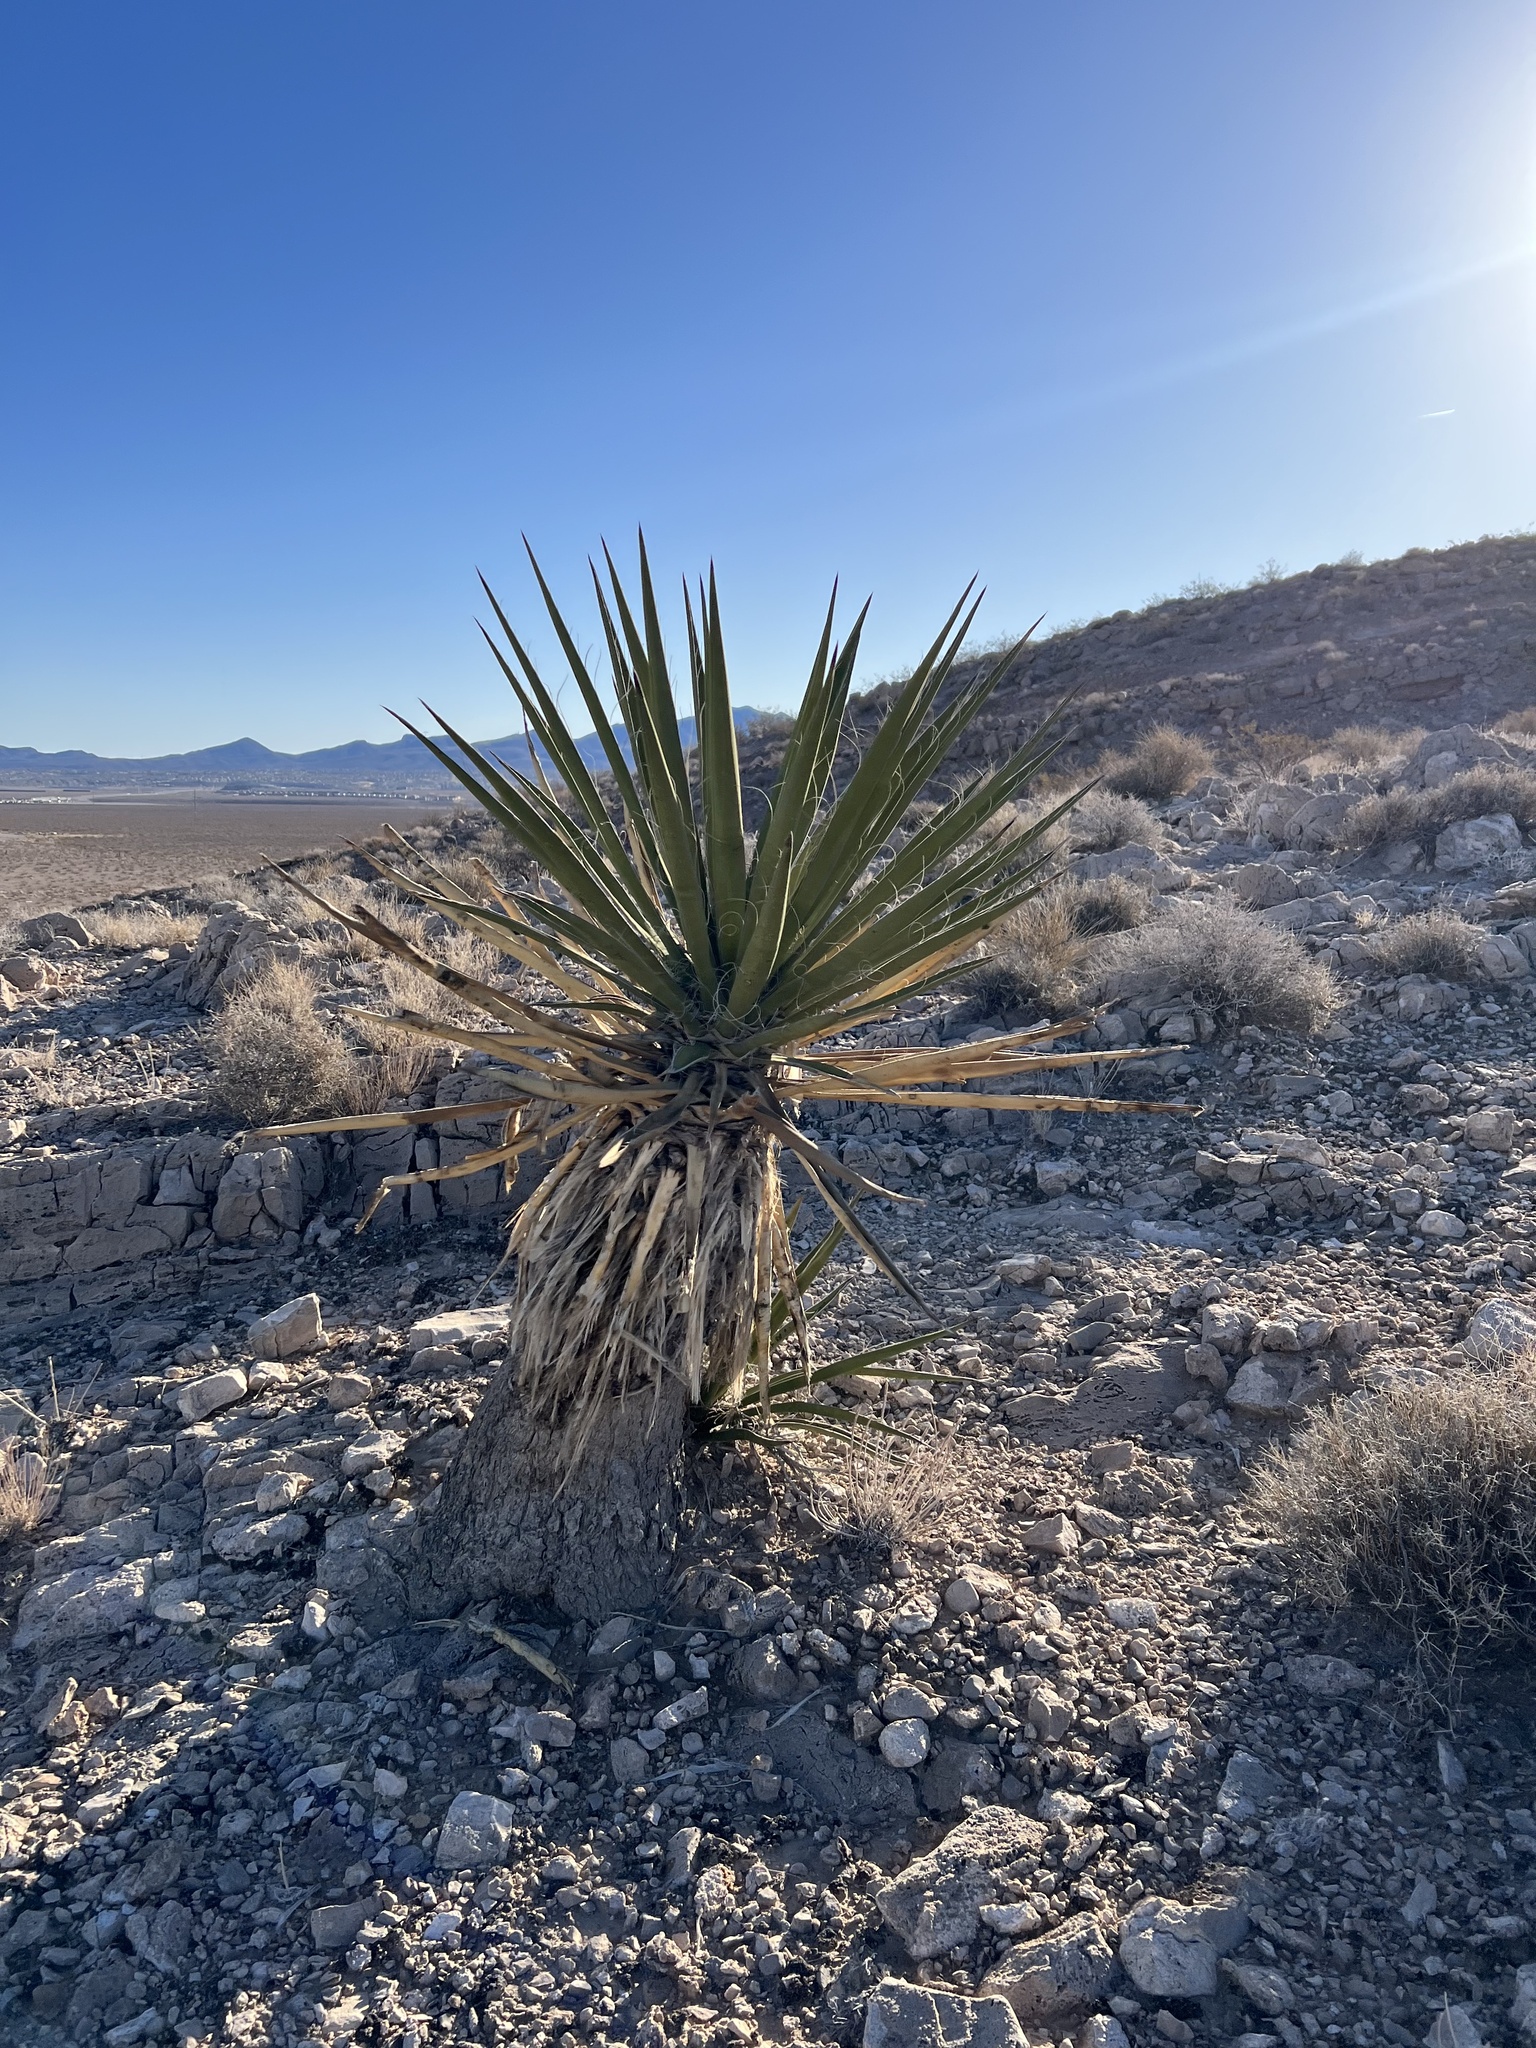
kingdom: Plantae
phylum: Tracheophyta
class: Liliopsida
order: Asparagales
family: Asparagaceae
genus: Yucca
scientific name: Yucca schidigera
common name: Mojave yucca
